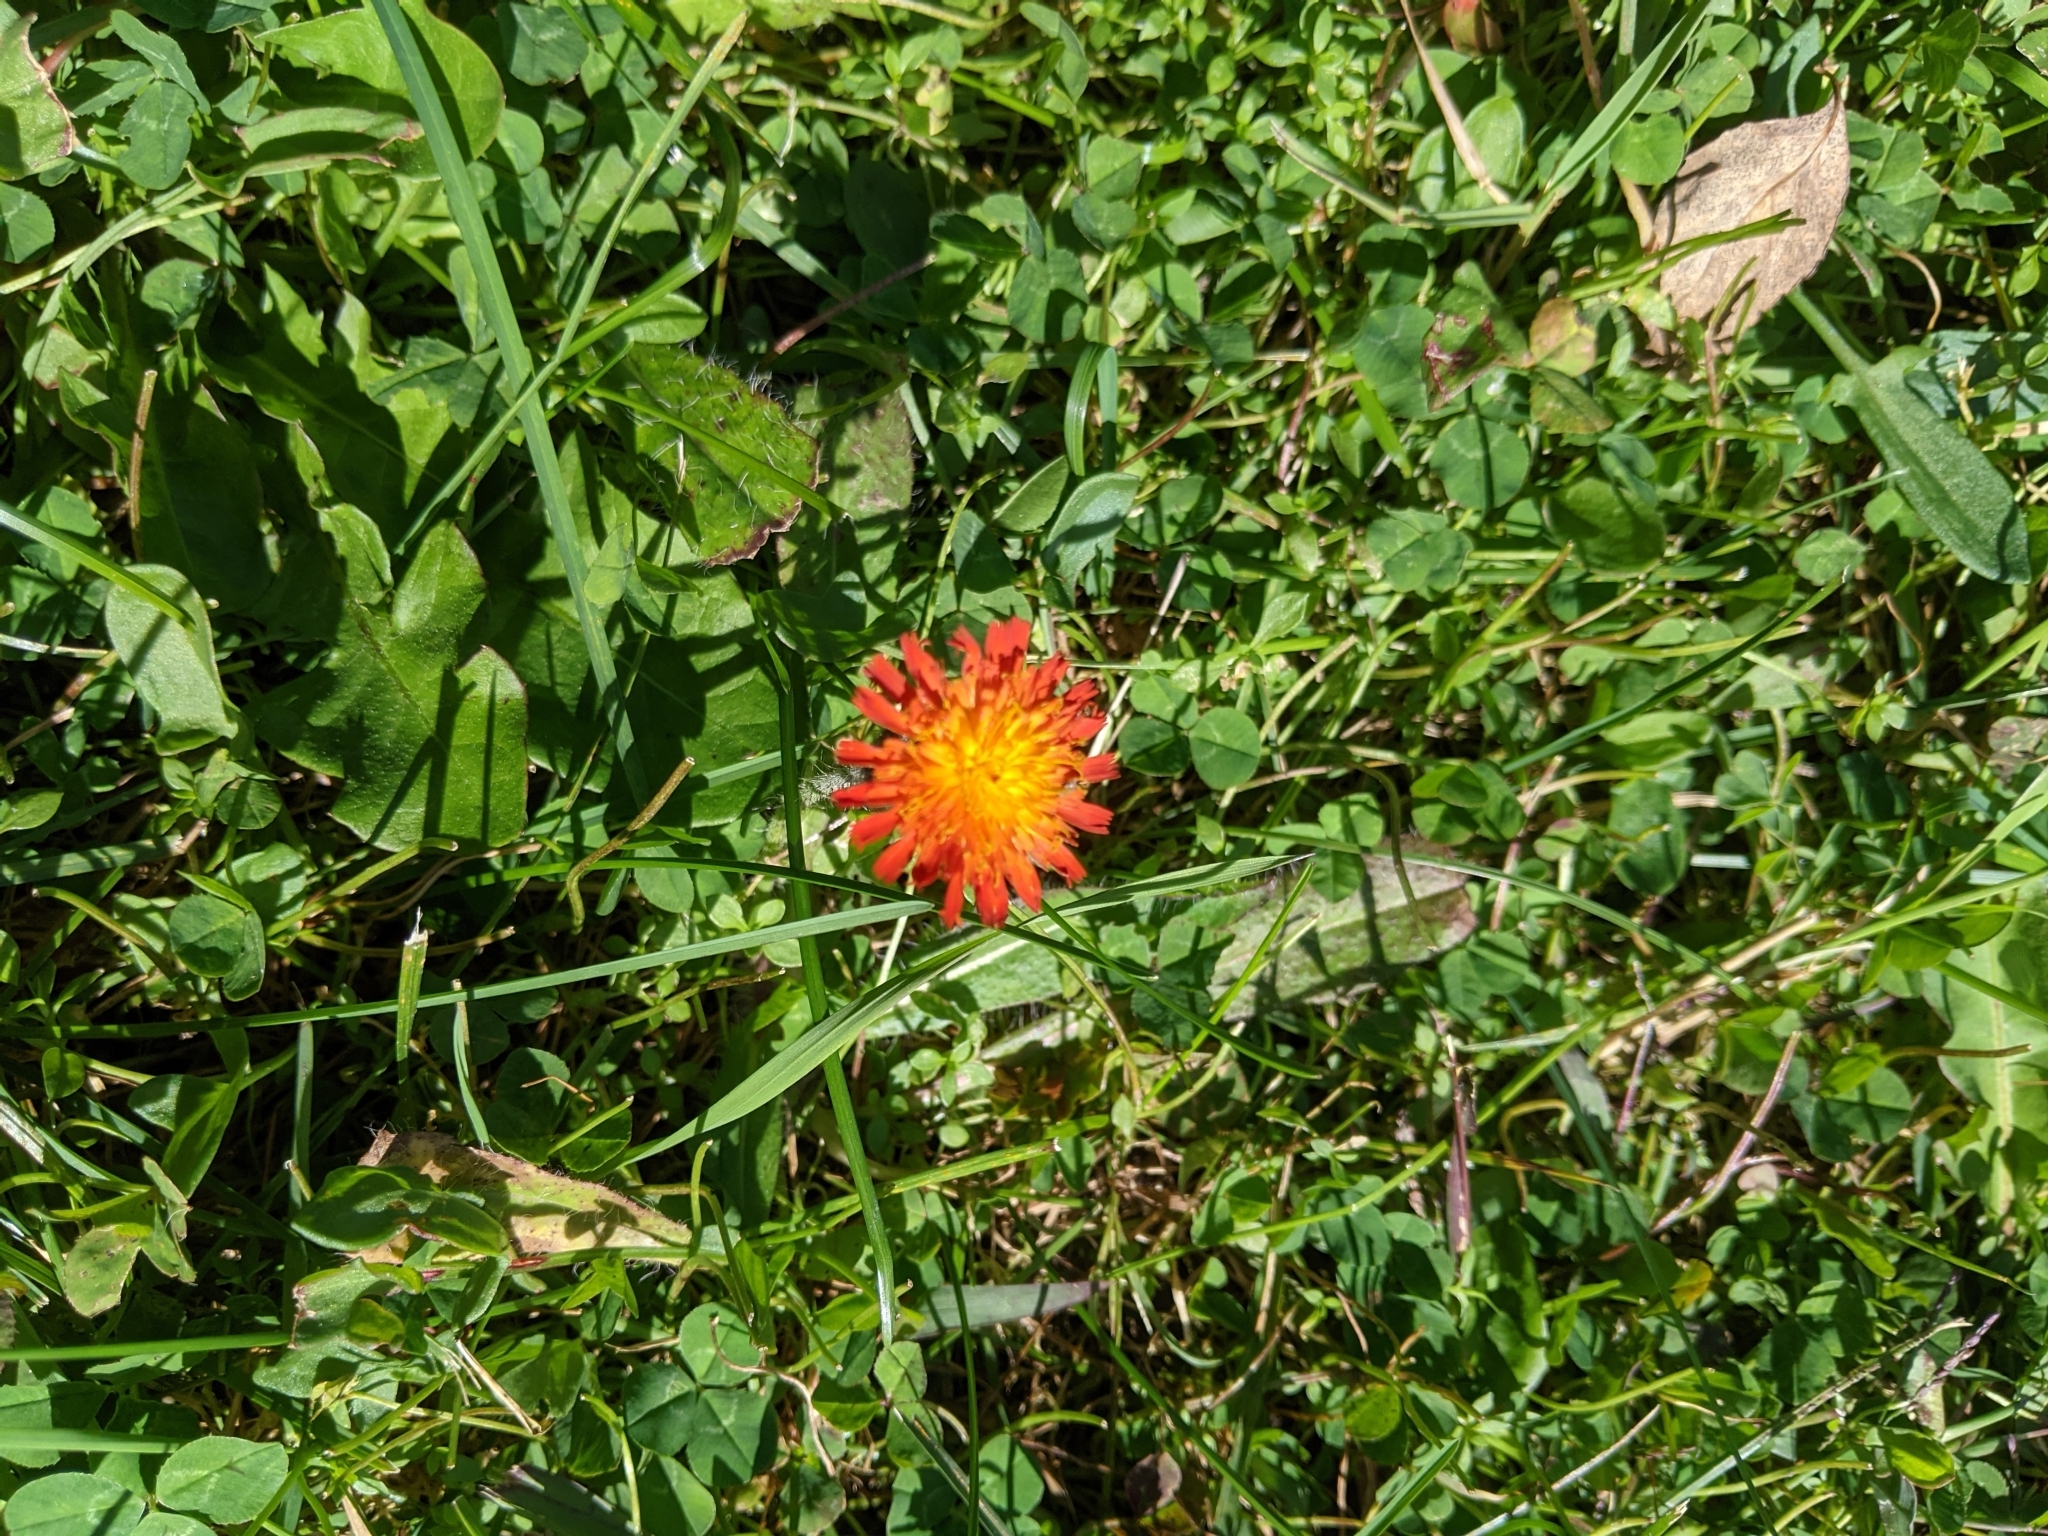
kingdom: Plantae
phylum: Tracheophyta
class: Magnoliopsida
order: Asterales
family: Asteraceae
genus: Pilosella
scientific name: Pilosella aurantiaca
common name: Fox-and-cubs
